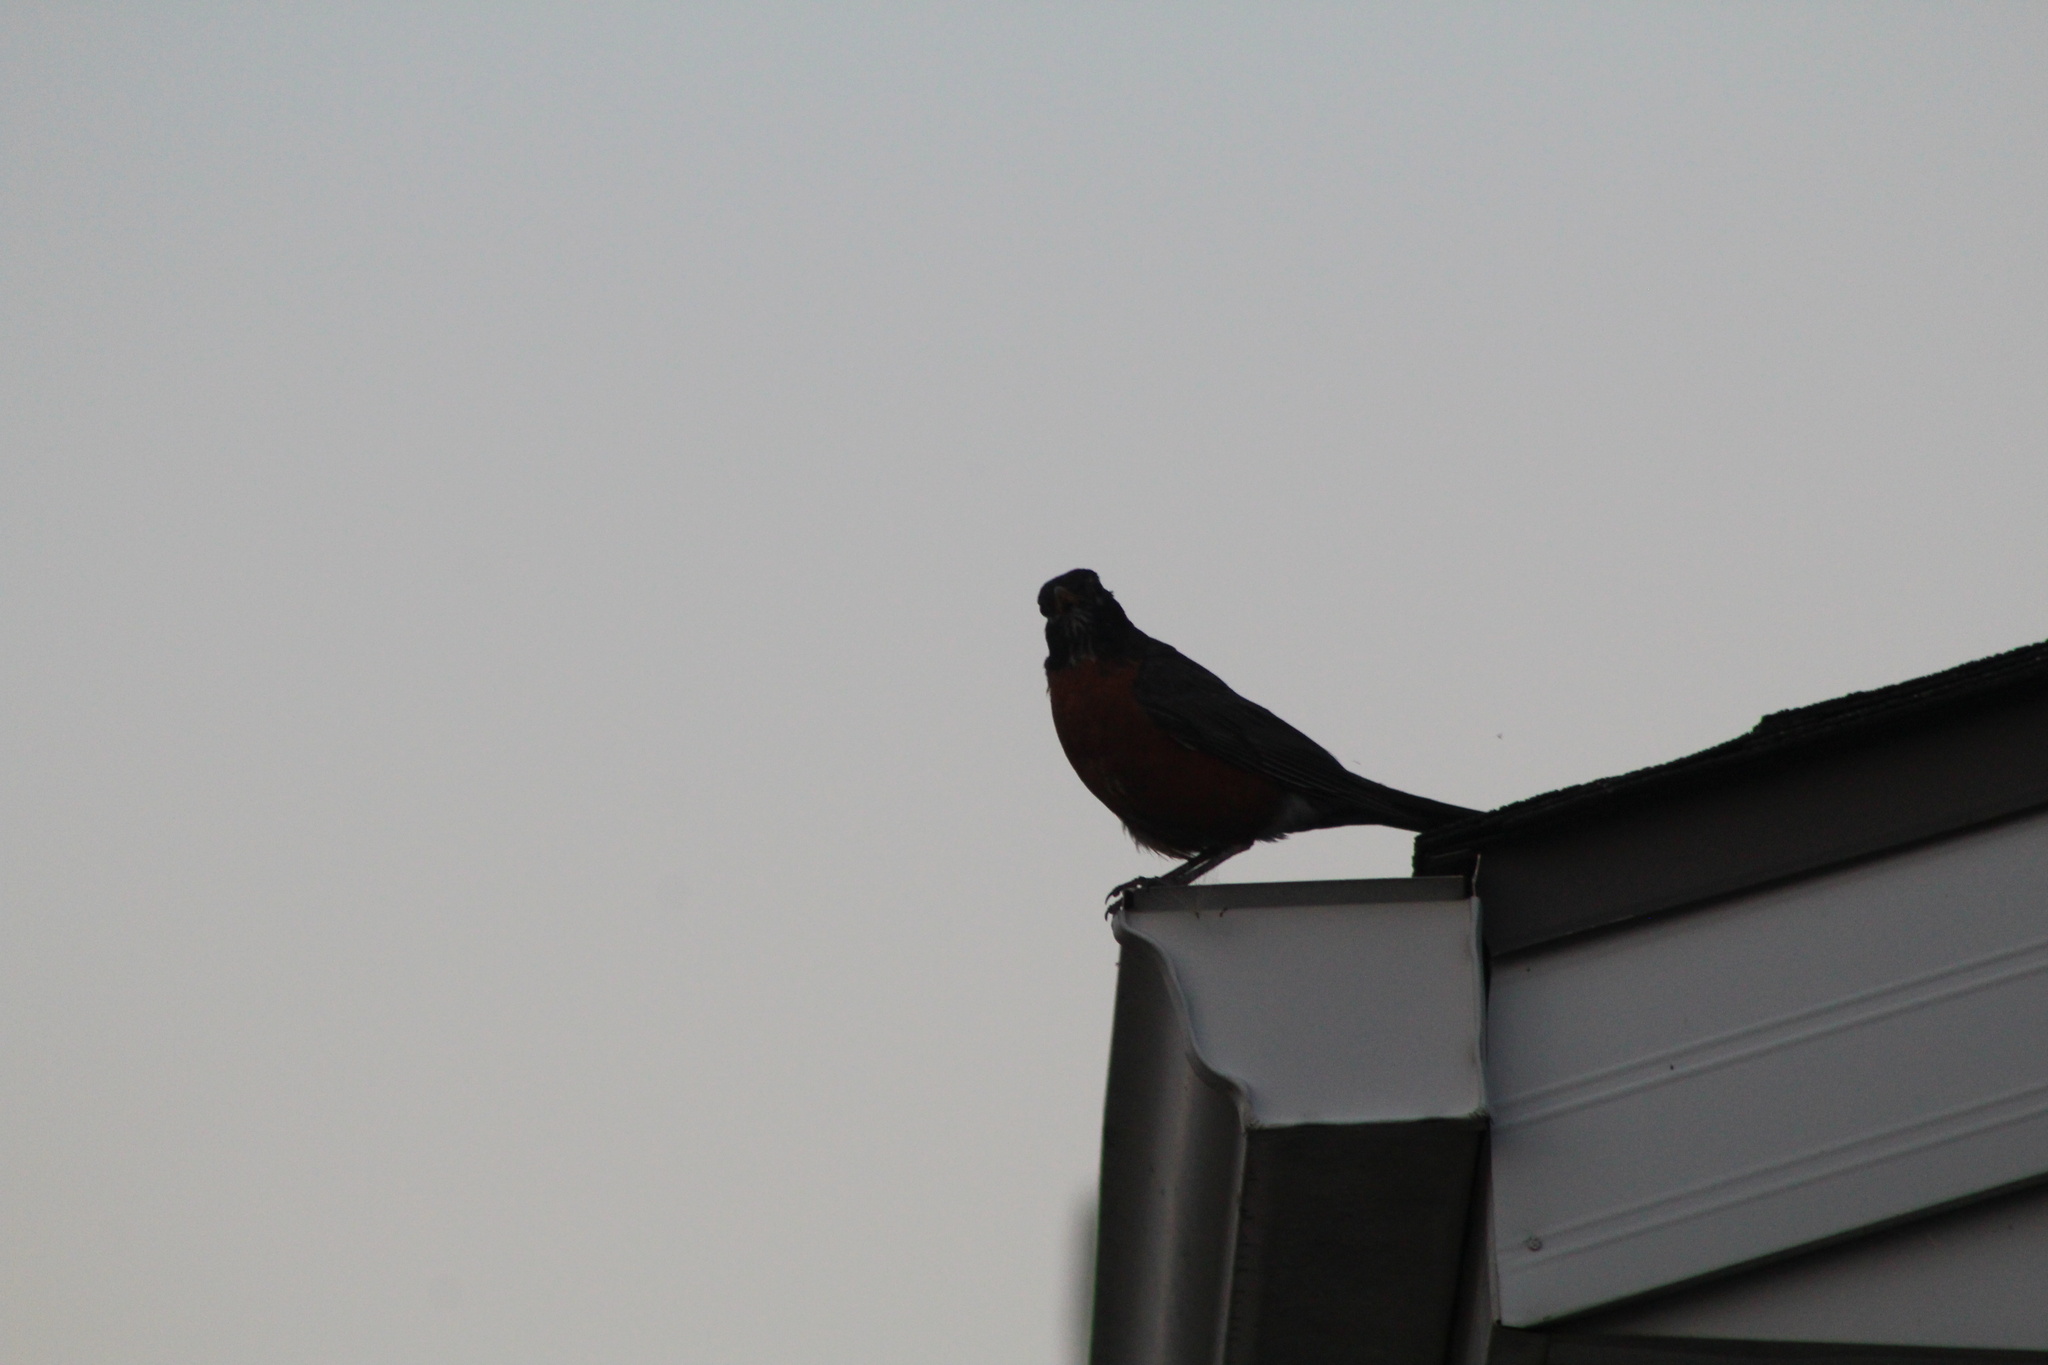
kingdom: Animalia
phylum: Chordata
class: Aves
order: Passeriformes
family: Turdidae
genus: Turdus
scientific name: Turdus migratorius
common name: American robin
